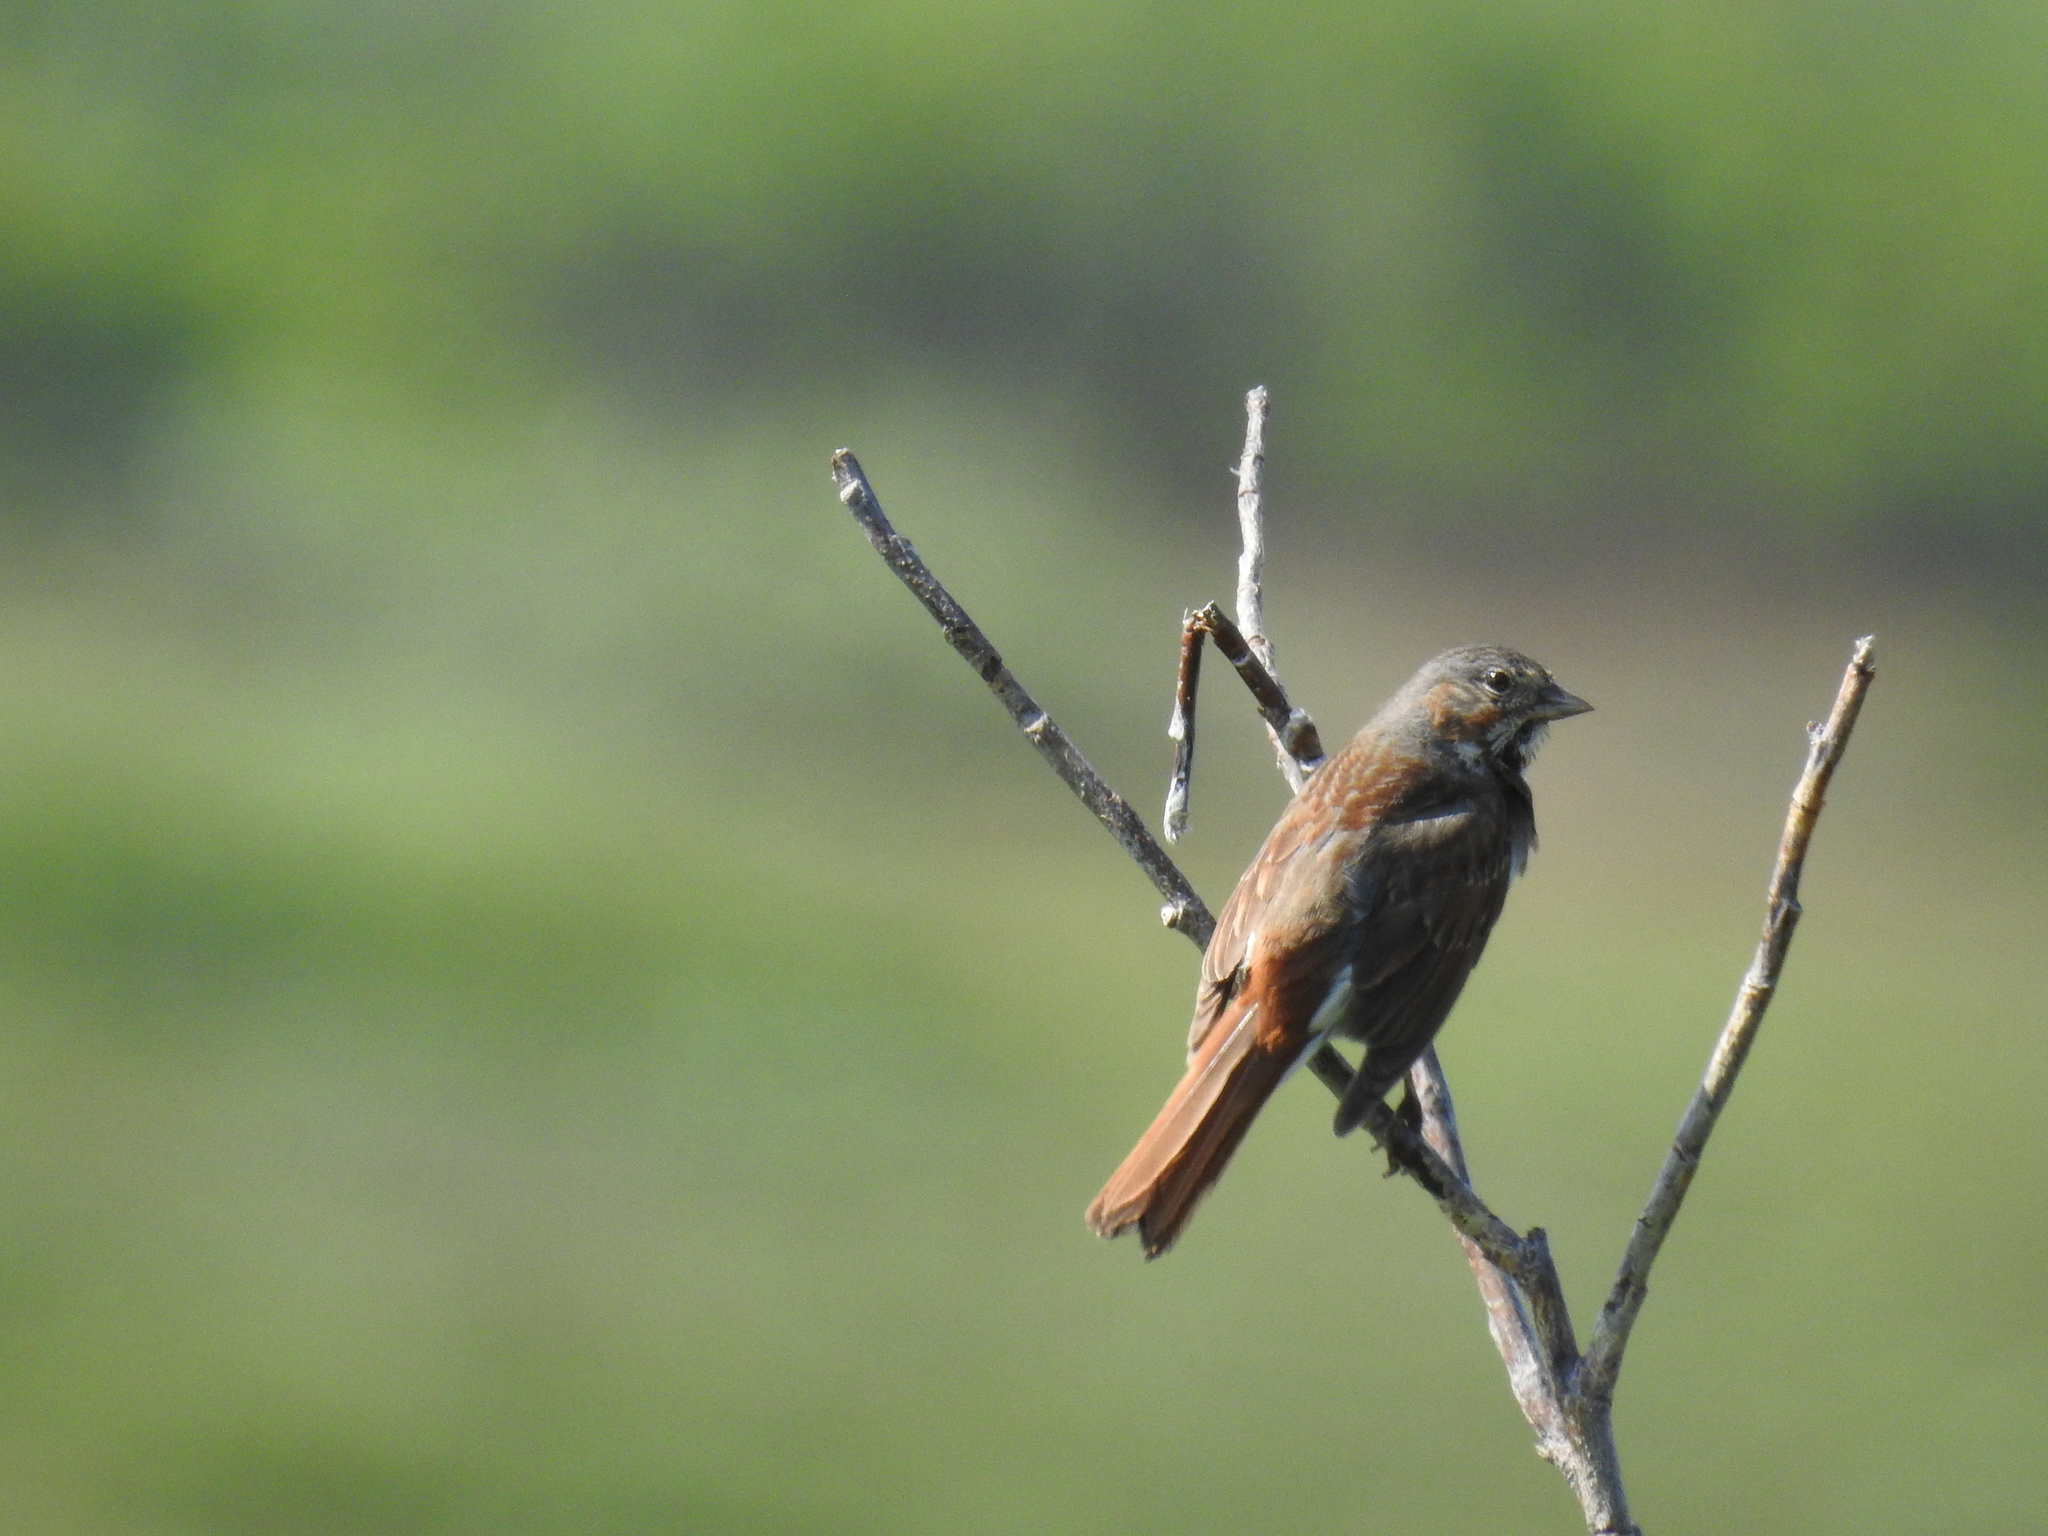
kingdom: Animalia
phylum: Chordata
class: Aves
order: Passeriformes
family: Passerellidae
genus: Passerella
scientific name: Passerella iliaca
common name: Fox sparrow
